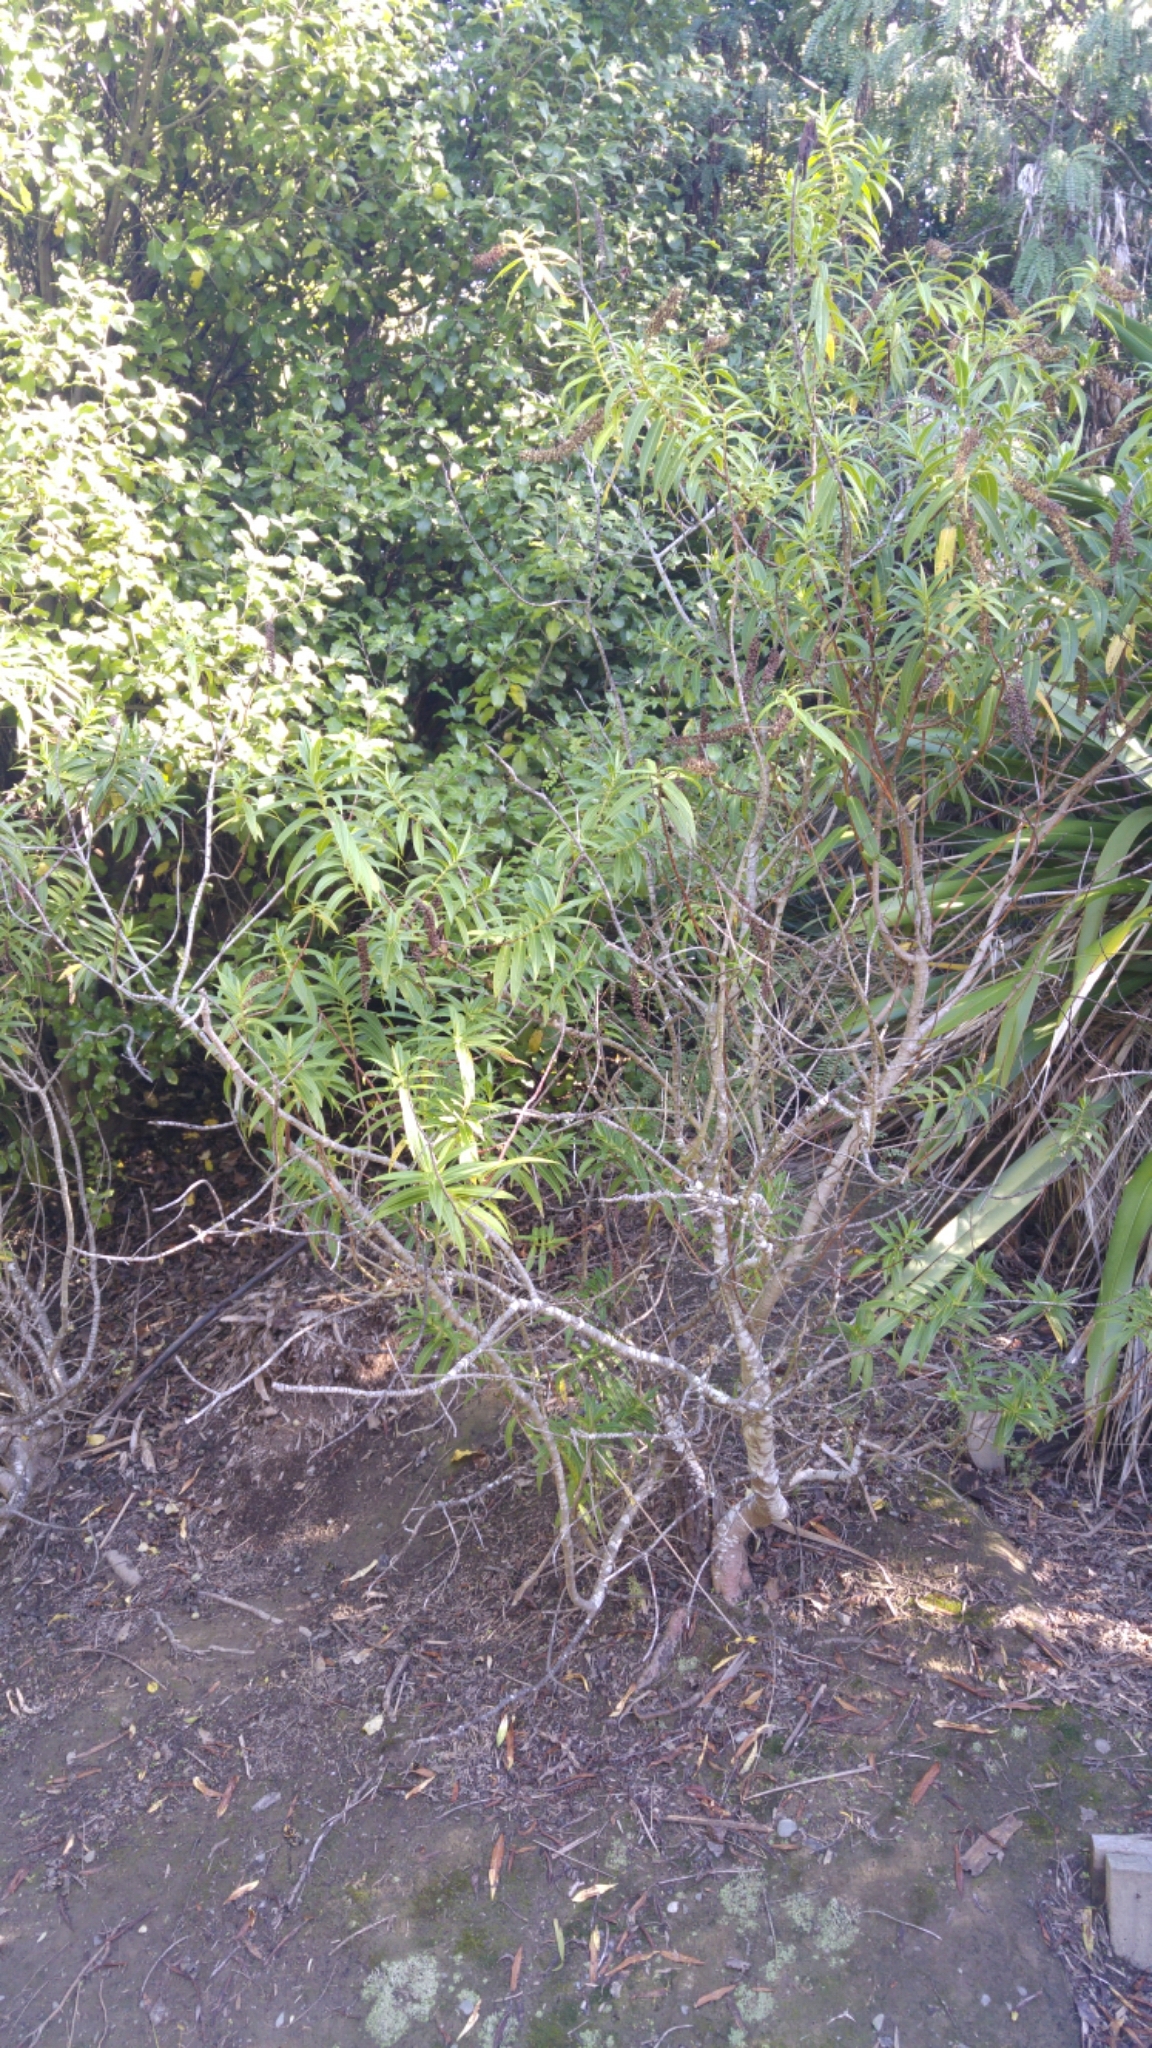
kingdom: Plantae
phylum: Tracheophyta
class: Magnoliopsida
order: Lamiales
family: Plantaginaceae
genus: Veronica
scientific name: Veronica salicifolia
